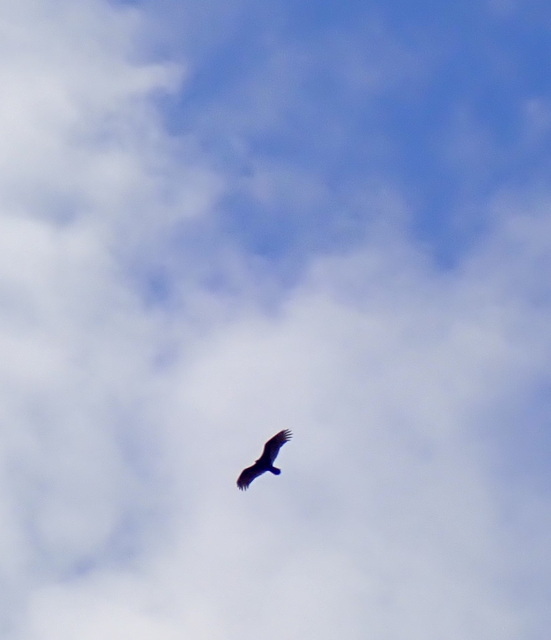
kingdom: Animalia
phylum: Chordata
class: Aves
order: Accipitriformes
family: Cathartidae
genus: Cathartes
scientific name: Cathartes aura
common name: Turkey vulture
